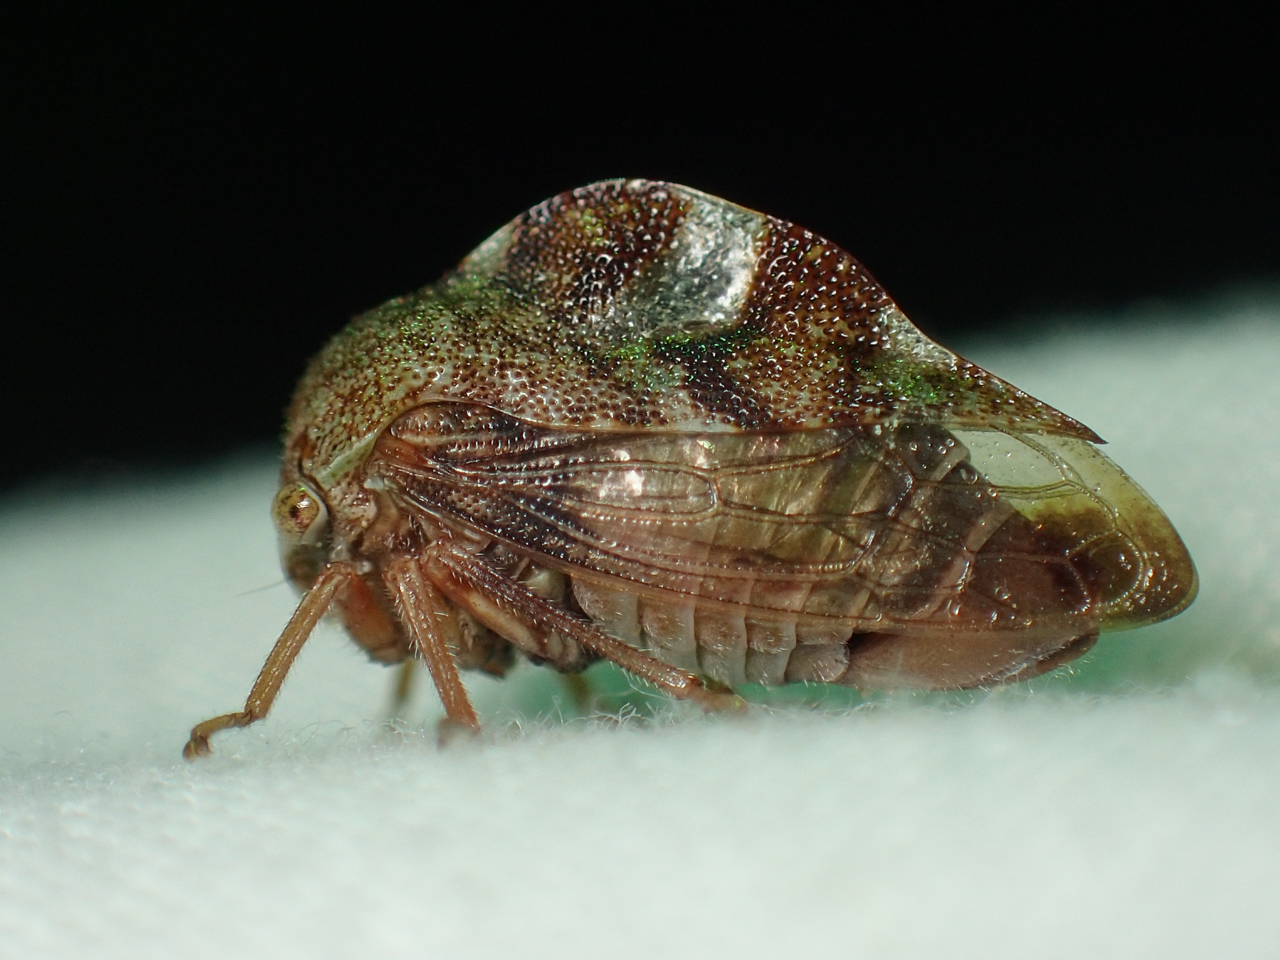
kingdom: Animalia
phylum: Arthropoda
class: Insecta
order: Hemiptera
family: Membracidae
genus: Cyrtolobus
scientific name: Cyrtolobus tuberosa
